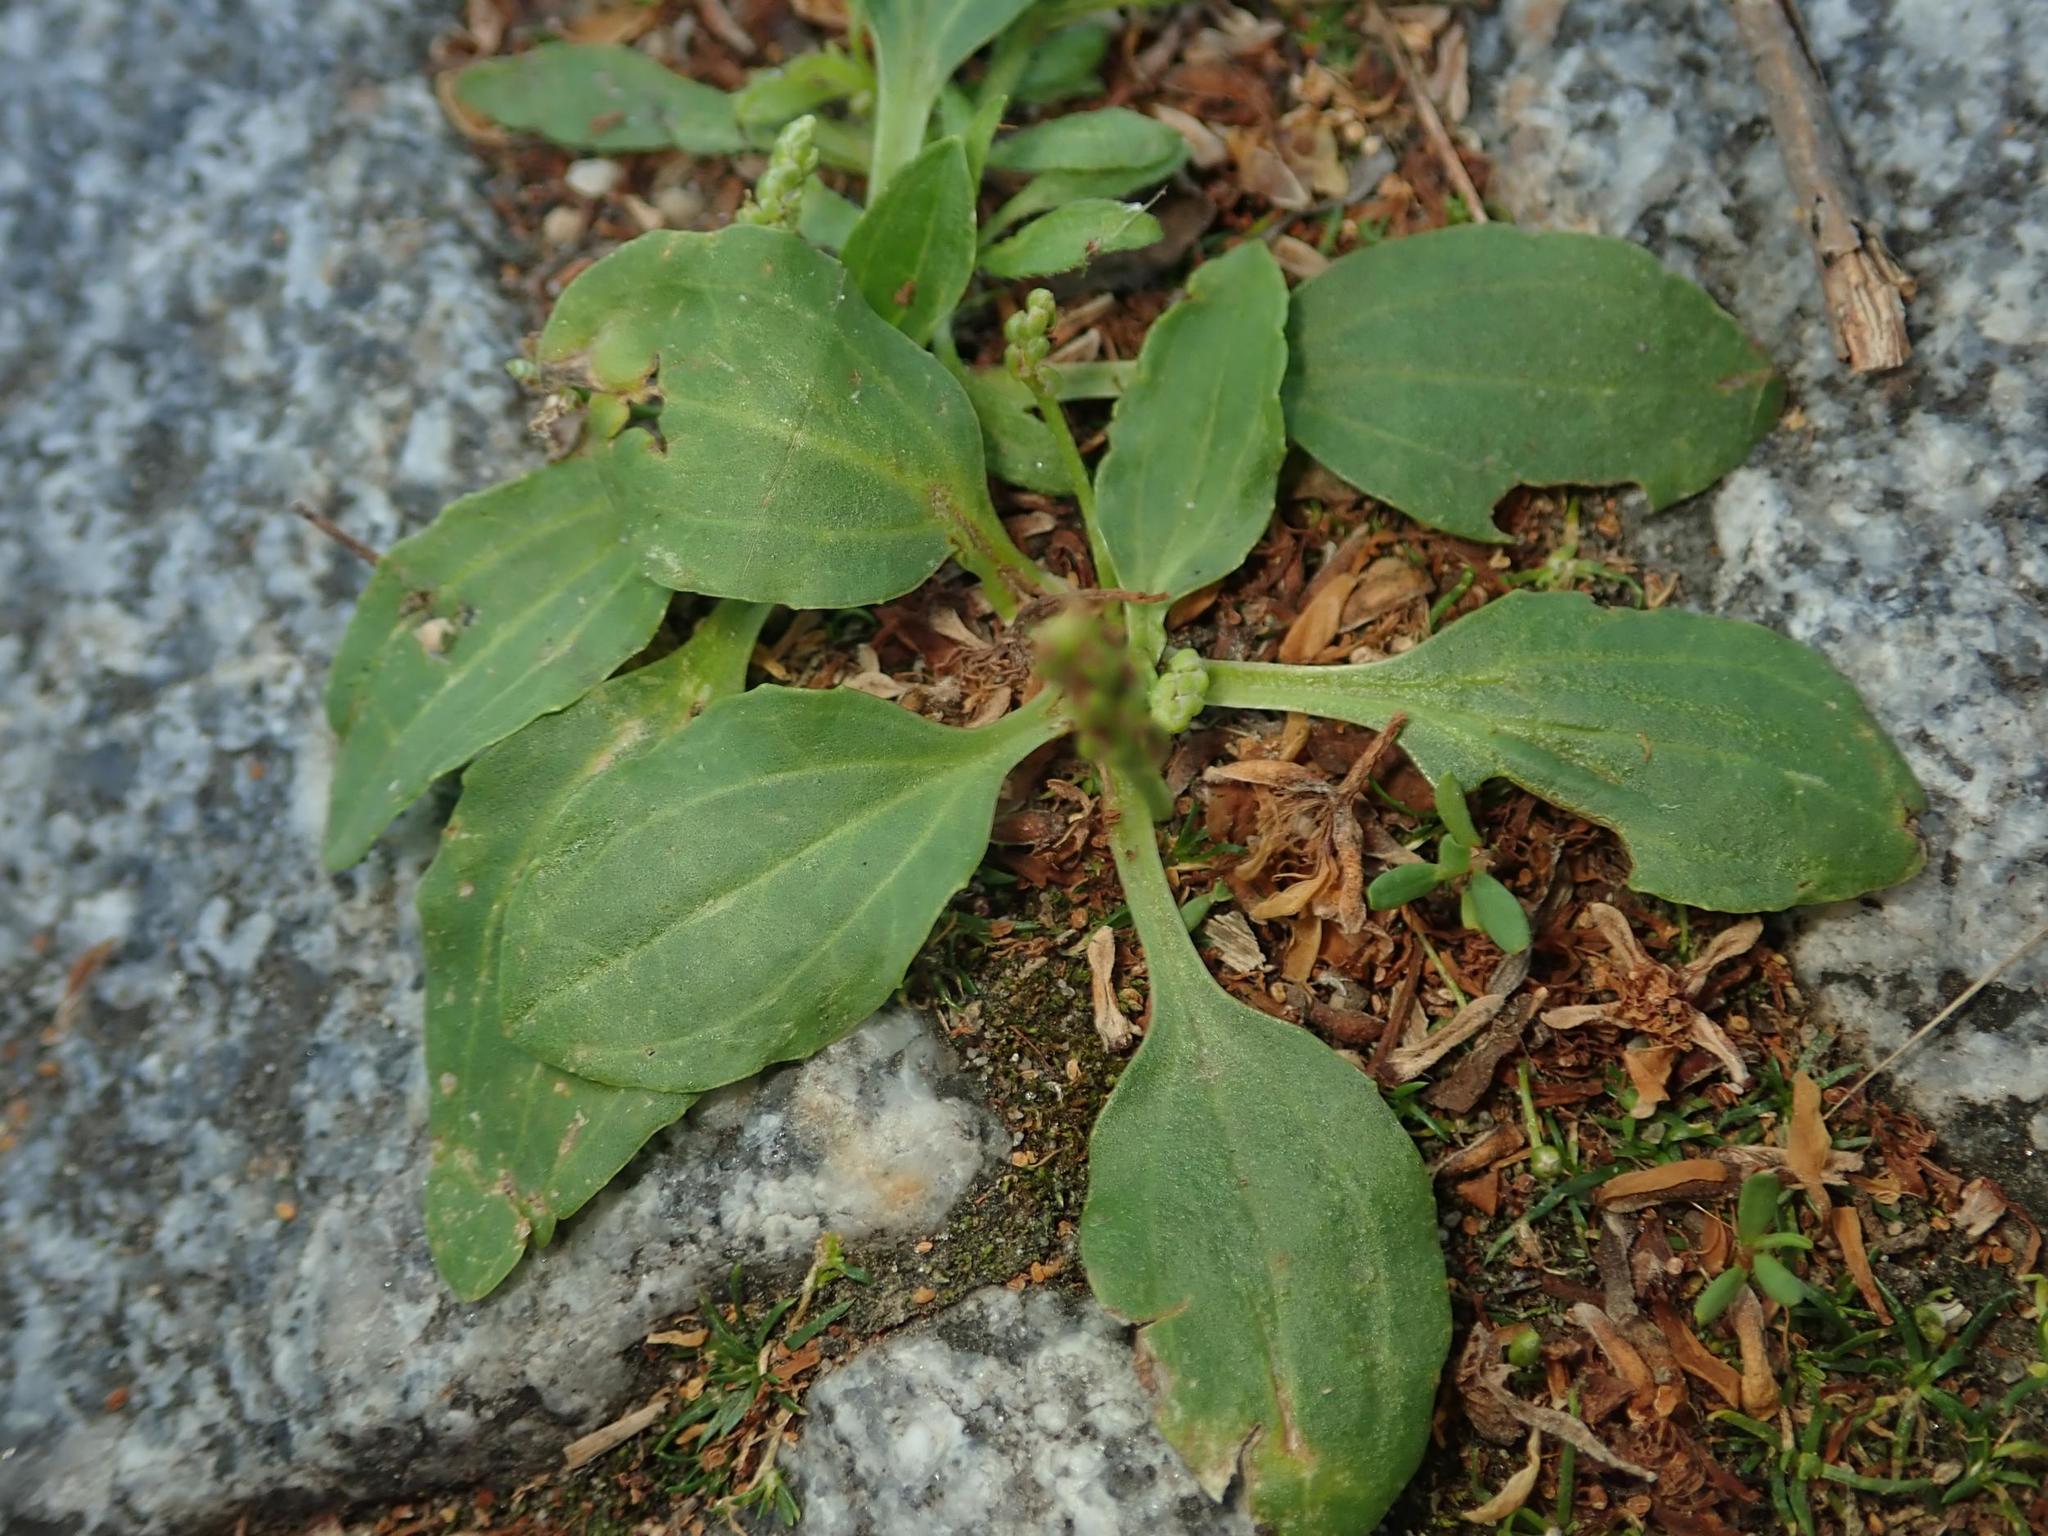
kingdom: Plantae
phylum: Tracheophyta
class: Magnoliopsida
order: Lamiales
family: Plantaginaceae
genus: Plantago
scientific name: Plantago major
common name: Common plantain
